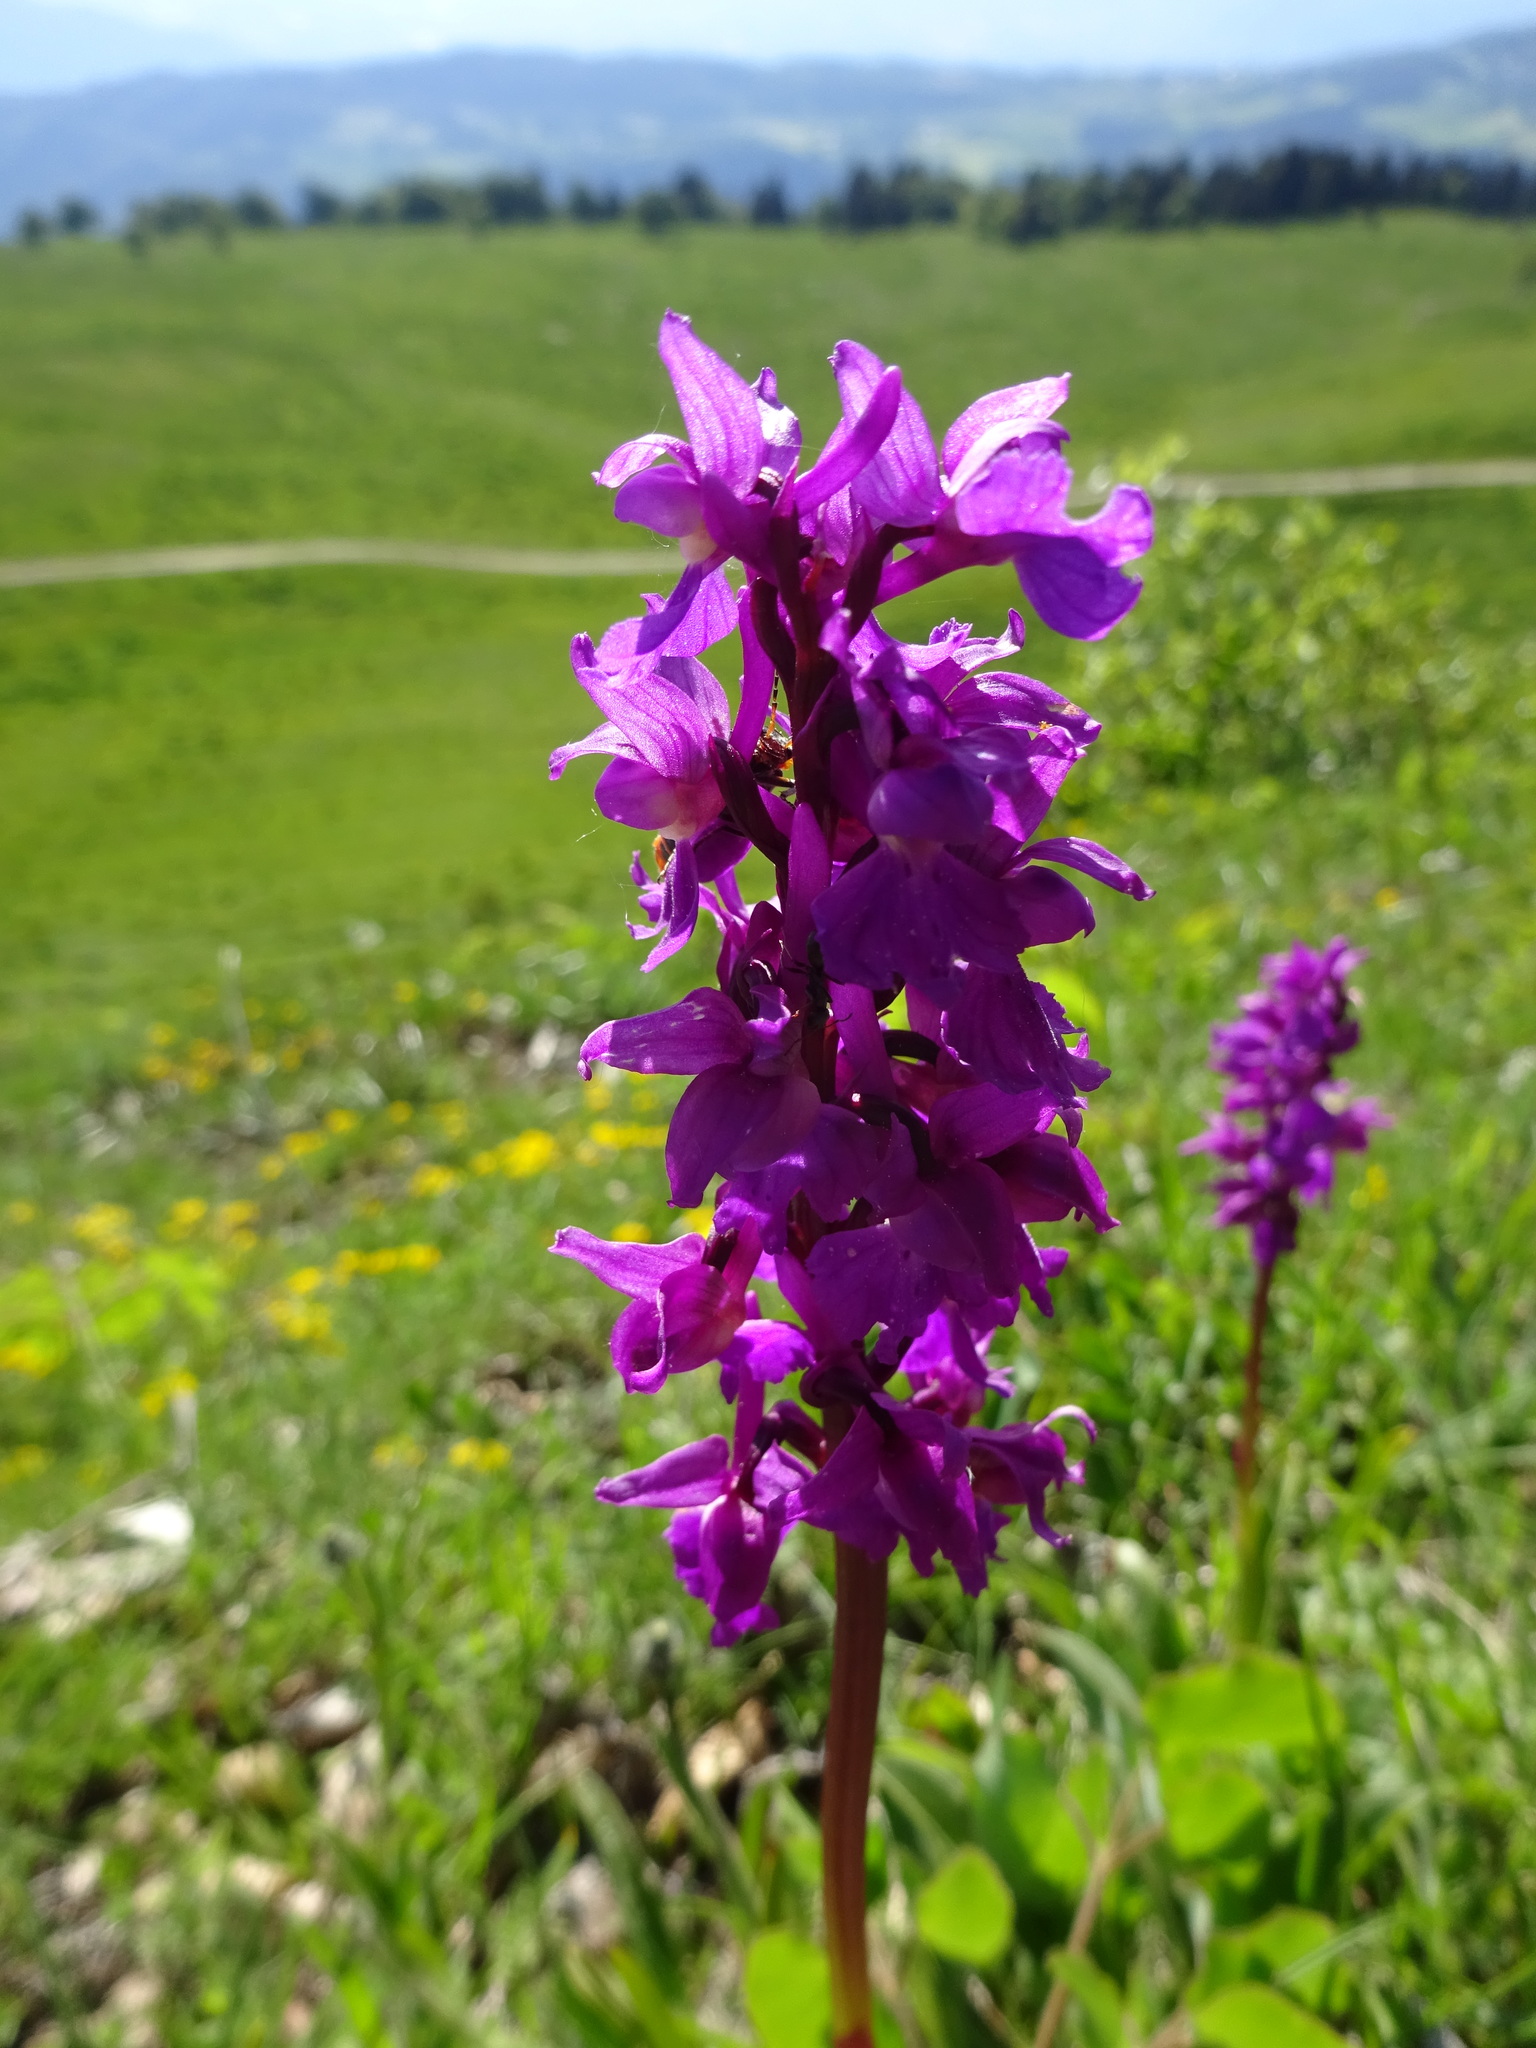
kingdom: Plantae
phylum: Tracheophyta
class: Liliopsida
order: Asparagales
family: Orchidaceae
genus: Orchis
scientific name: Orchis mascula
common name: Early-purple orchid
